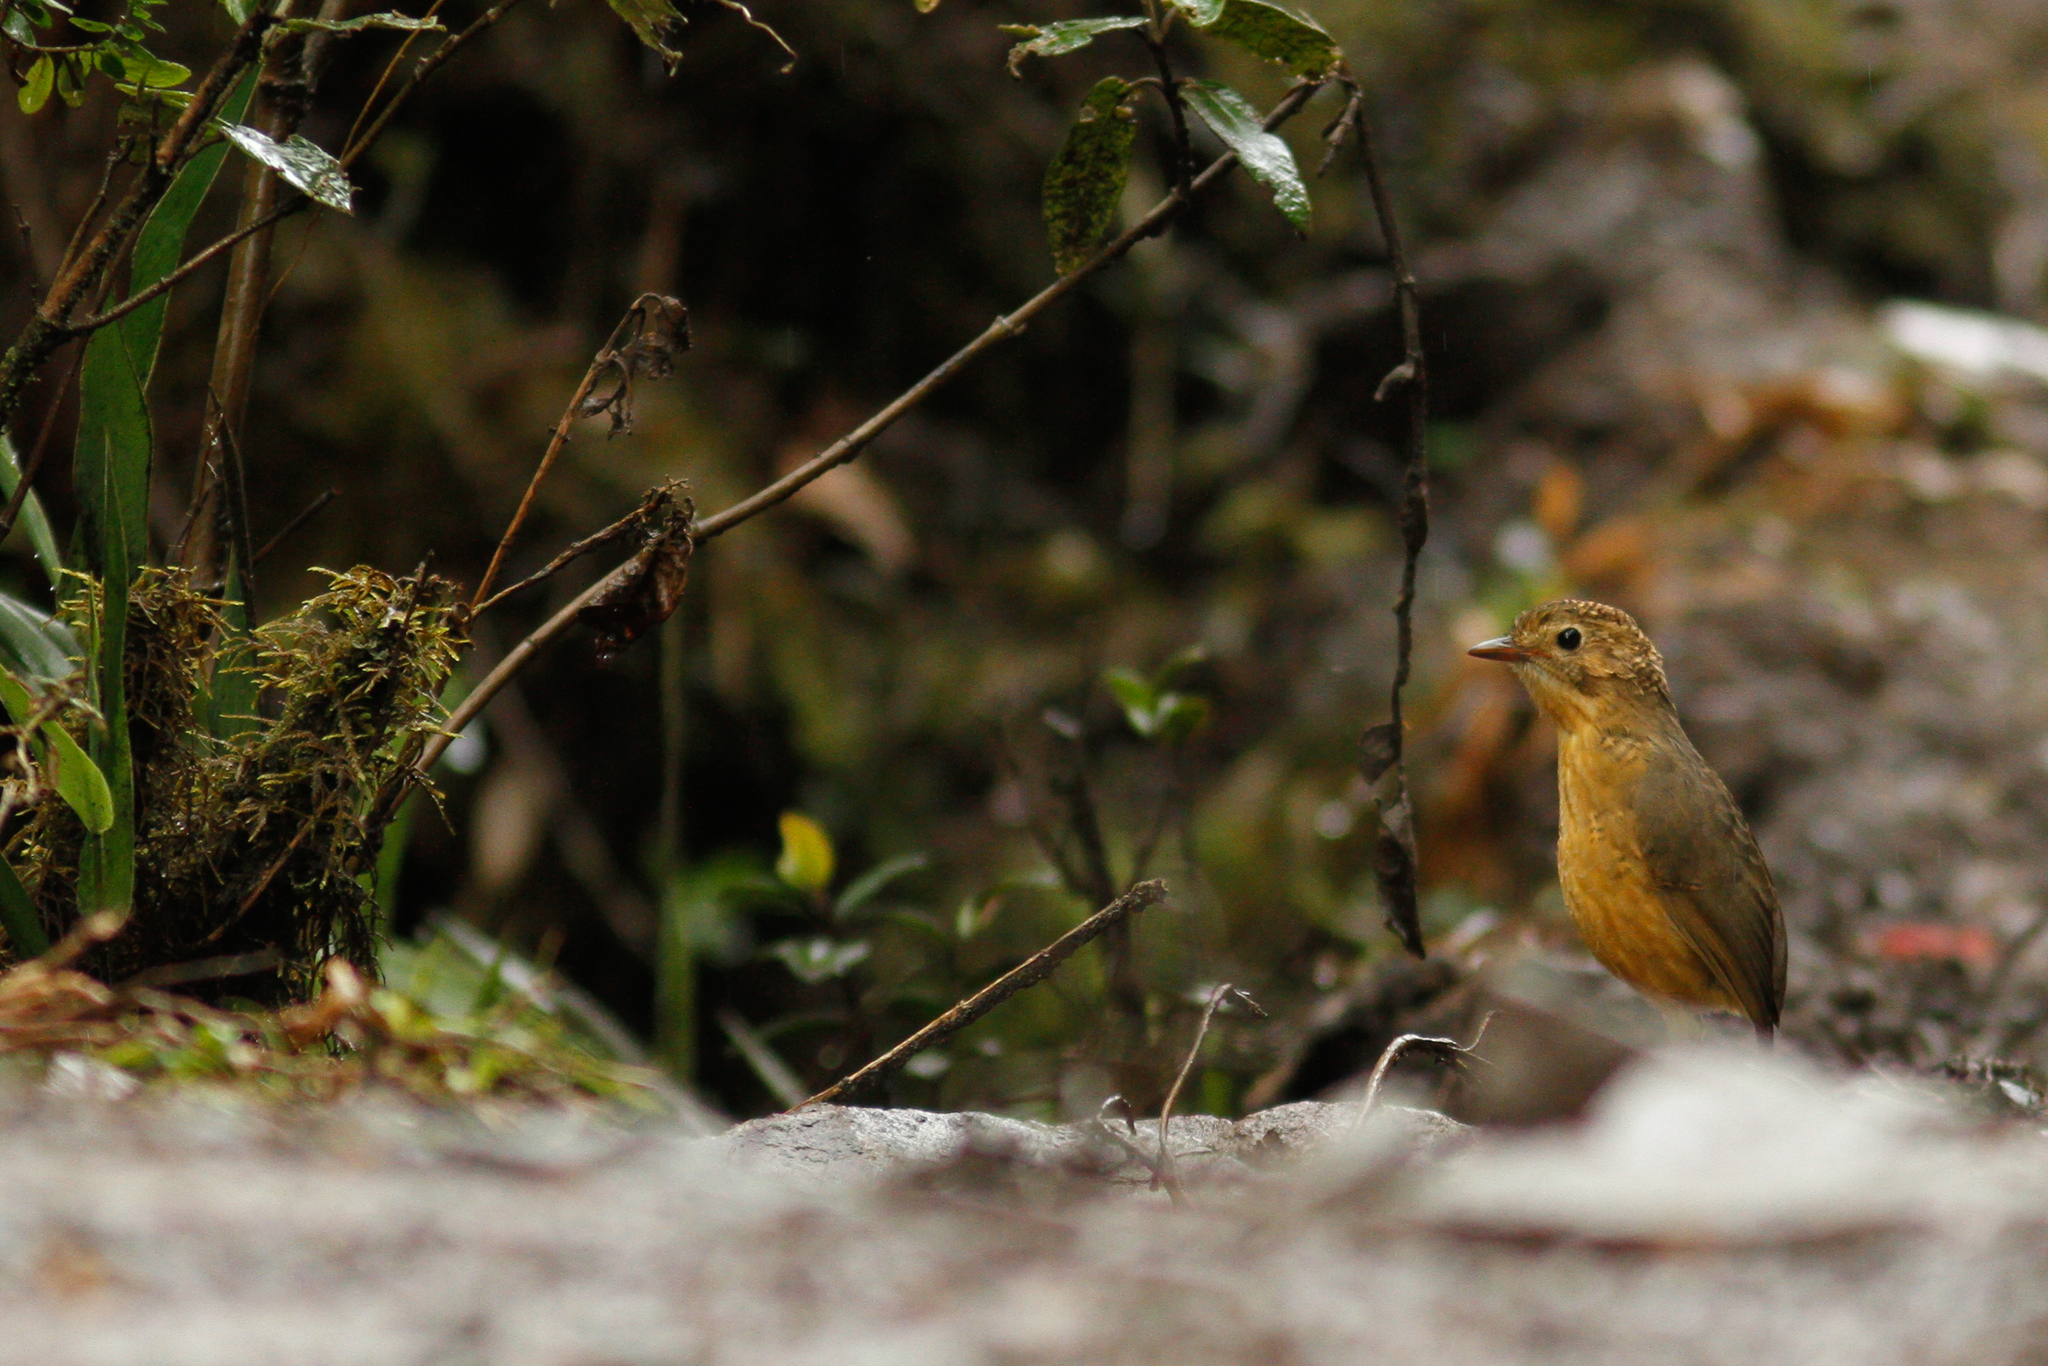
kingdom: Animalia
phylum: Chordata
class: Aves
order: Passeriformes
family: Grallariidae
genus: Grallaria
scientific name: Grallaria quitensis
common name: Tawny antpitta
